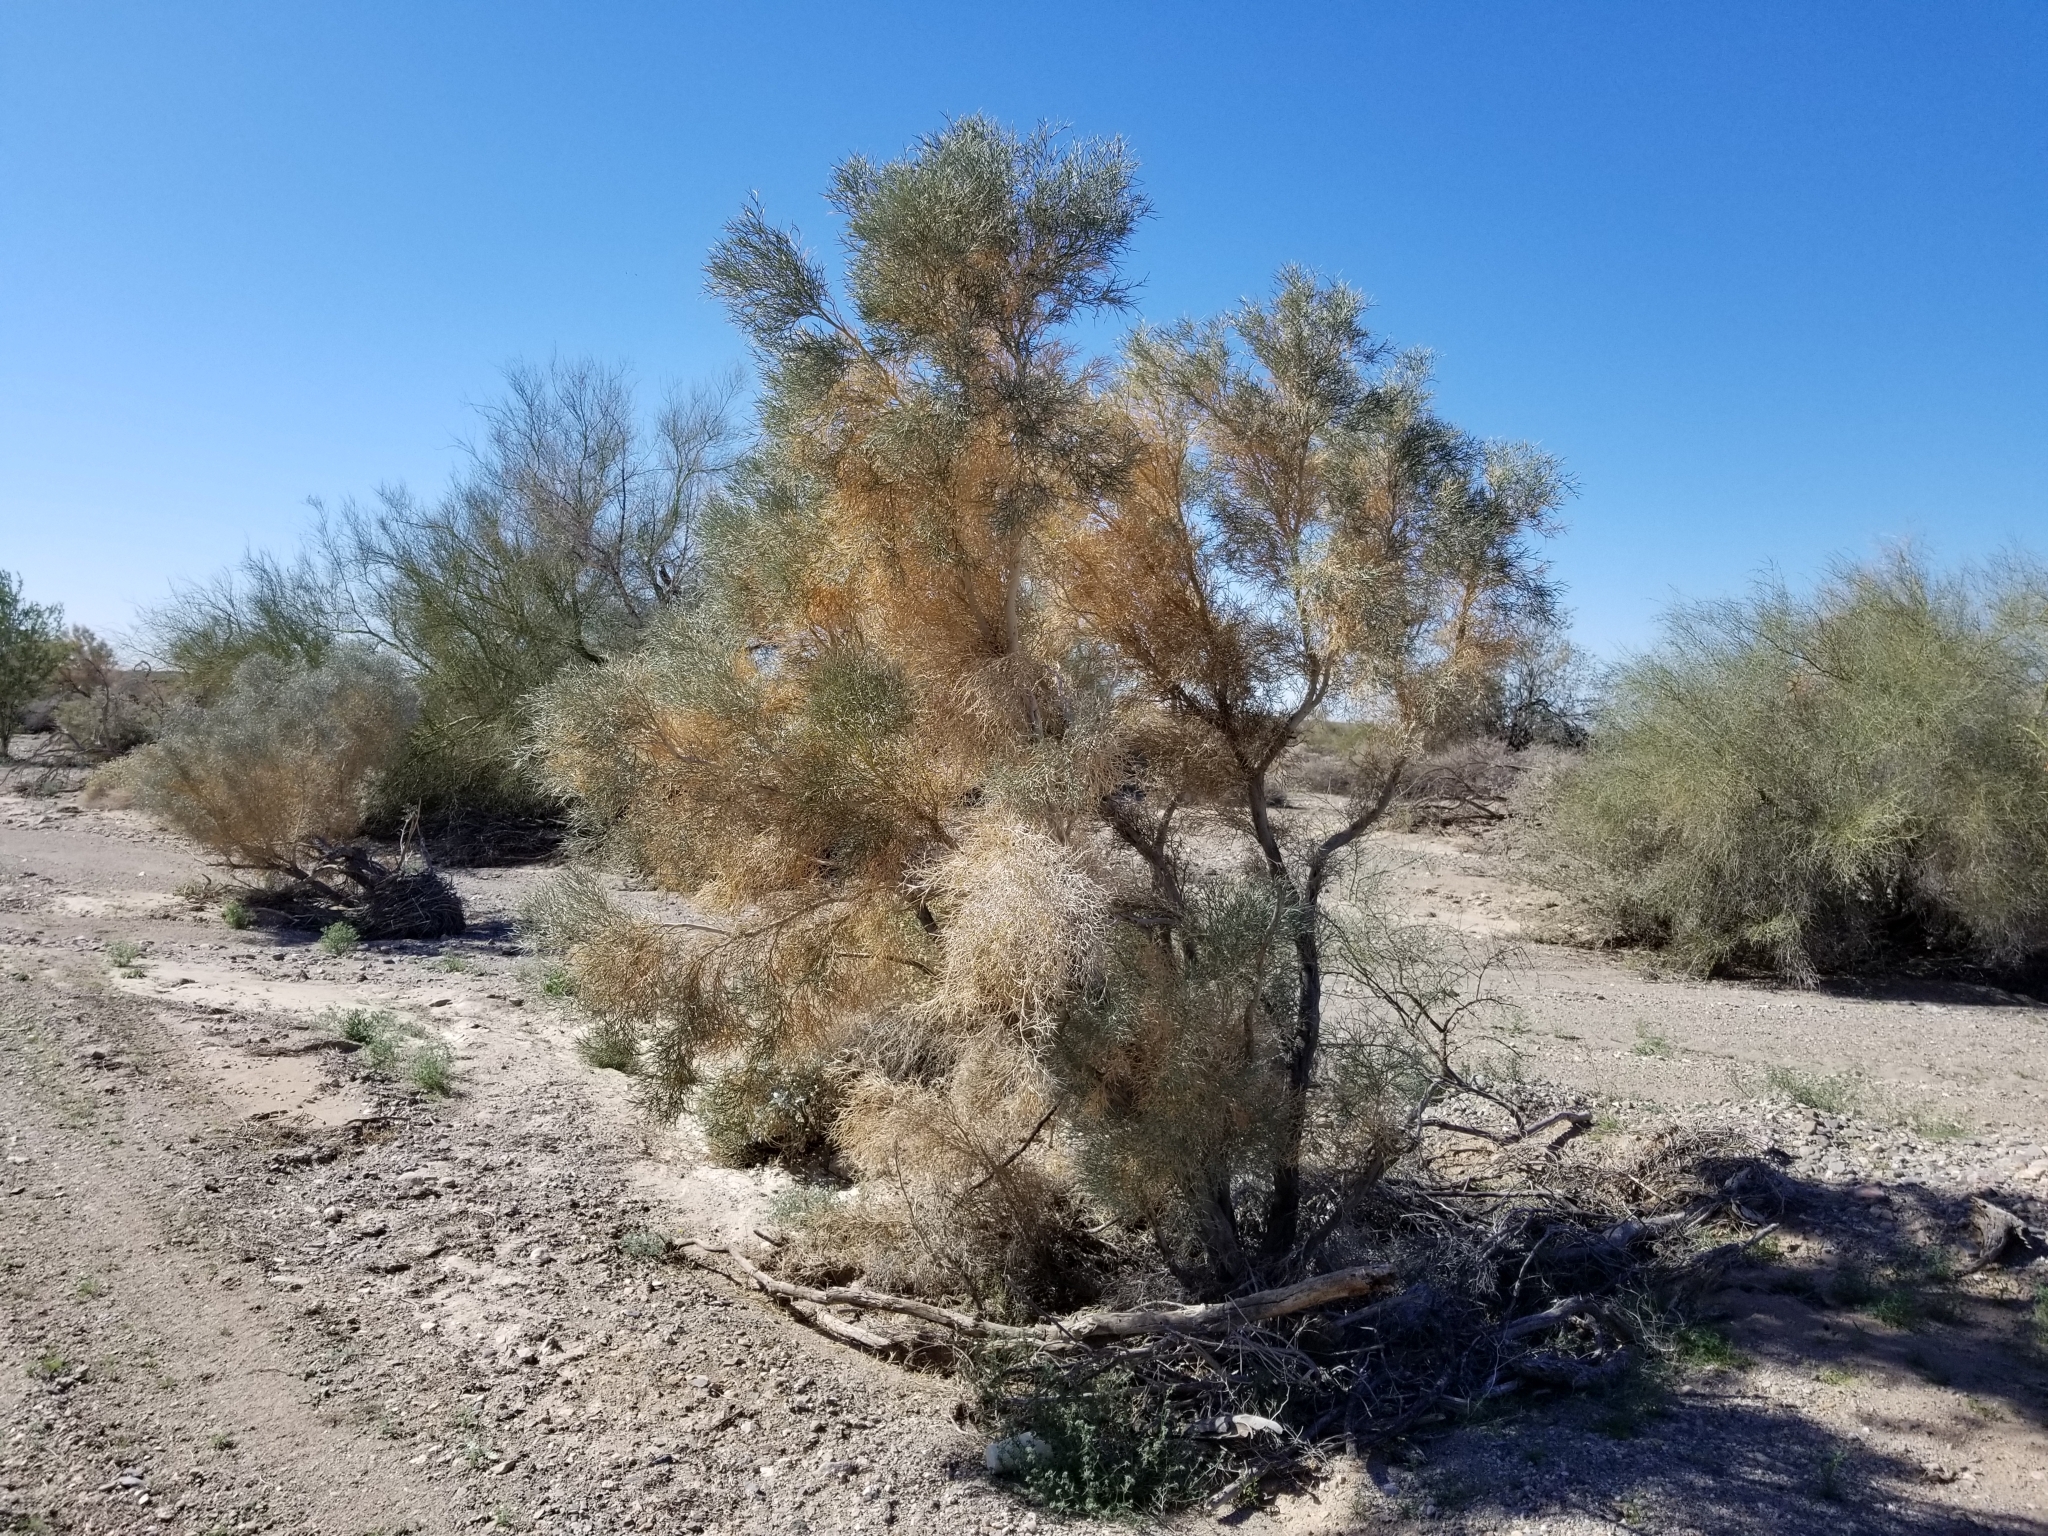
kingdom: Plantae
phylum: Tracheophyta
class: Magnoliopsida
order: Fabales
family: Fabaceae
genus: Psorothamnus
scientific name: Psorothamnus spinosus
